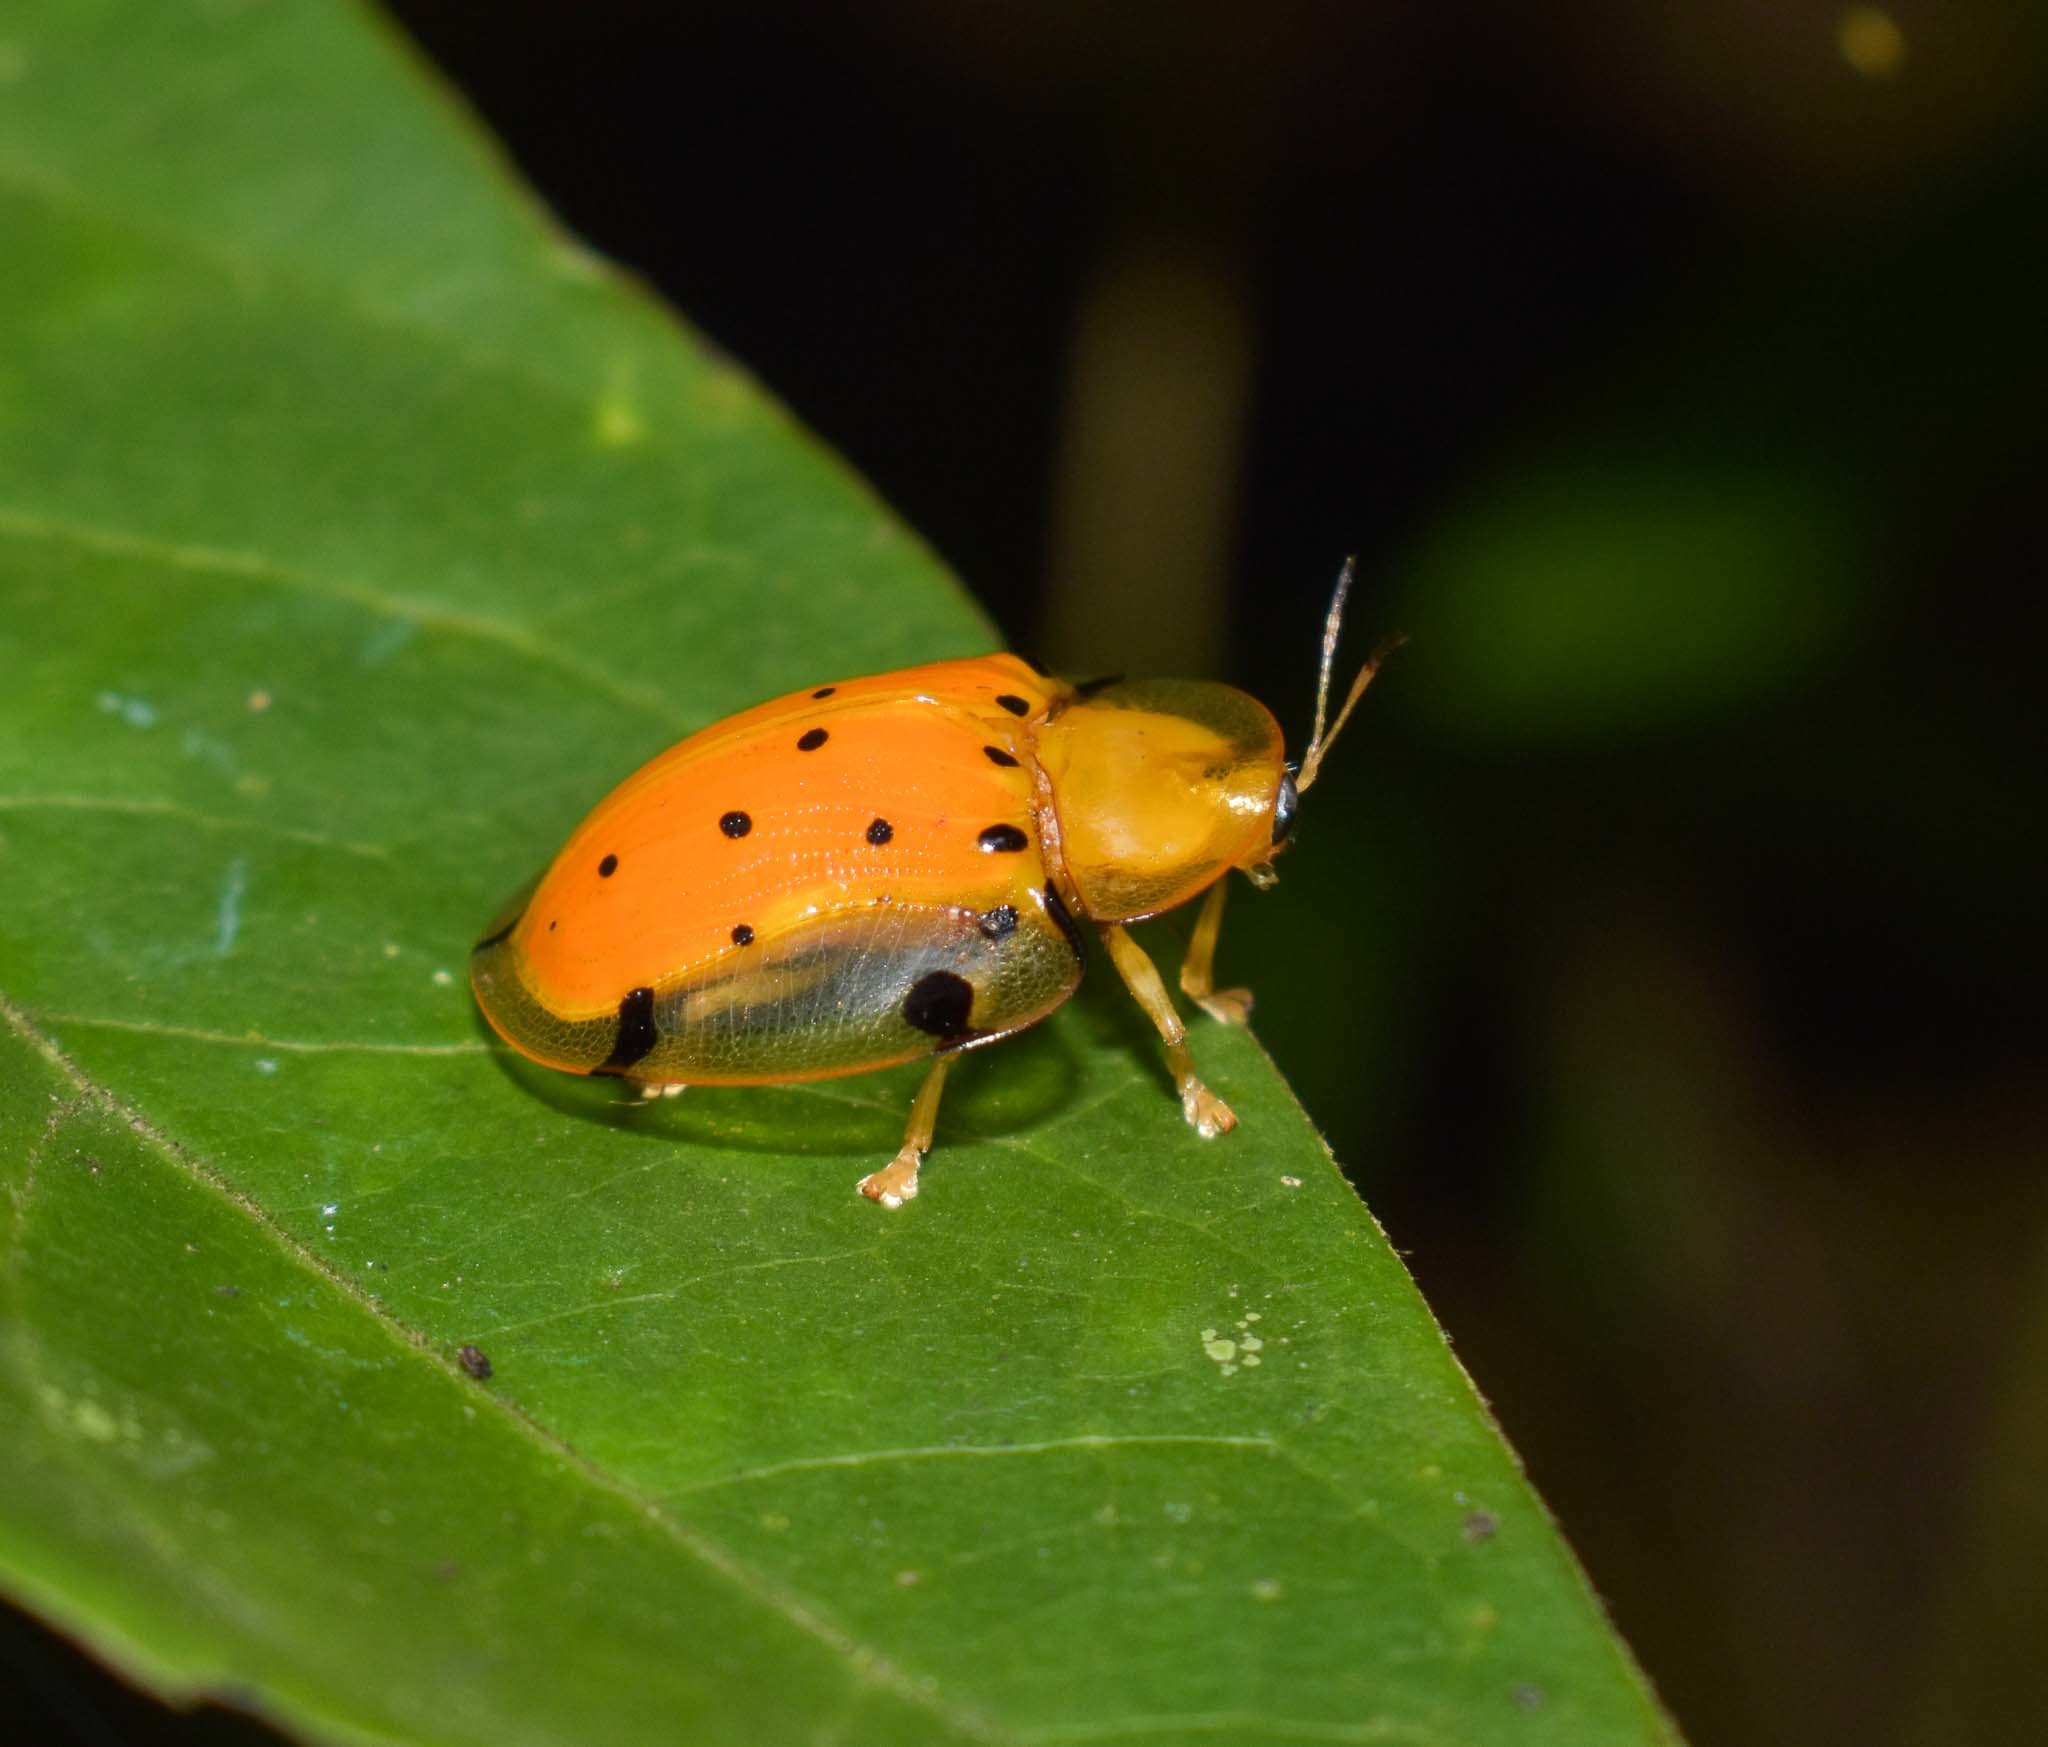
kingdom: Animalia
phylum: Arthropoda
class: Insecta
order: Coleoptera
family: Chrysomelidae
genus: Aspidimorpha
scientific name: Aspidimorpha miliaris
